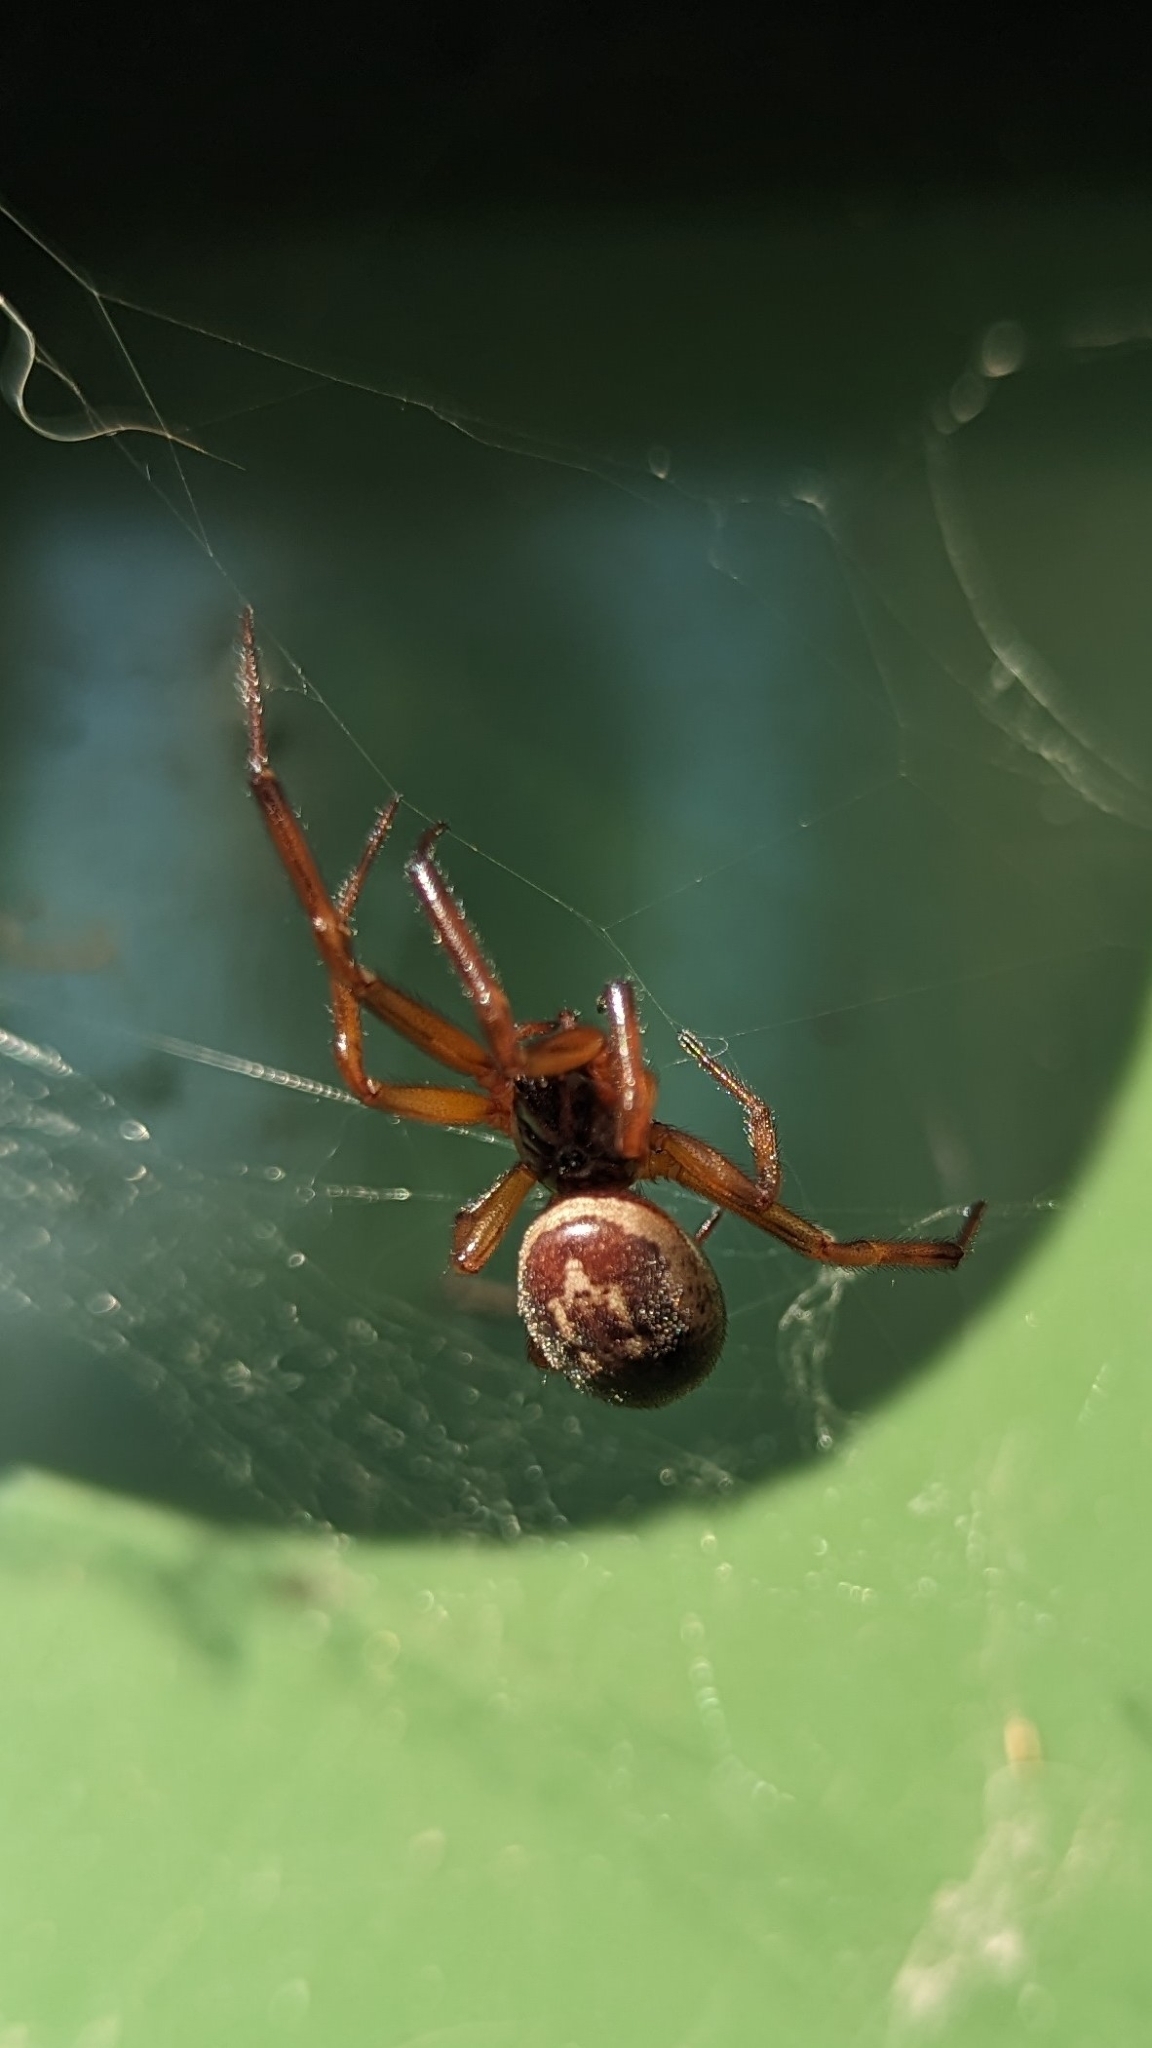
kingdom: Animalia
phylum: Arthropoda
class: Arachnida
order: Araneae
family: Theridiidae
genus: Steatoda
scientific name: Steatoda nobilis
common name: Cobweb weaver
